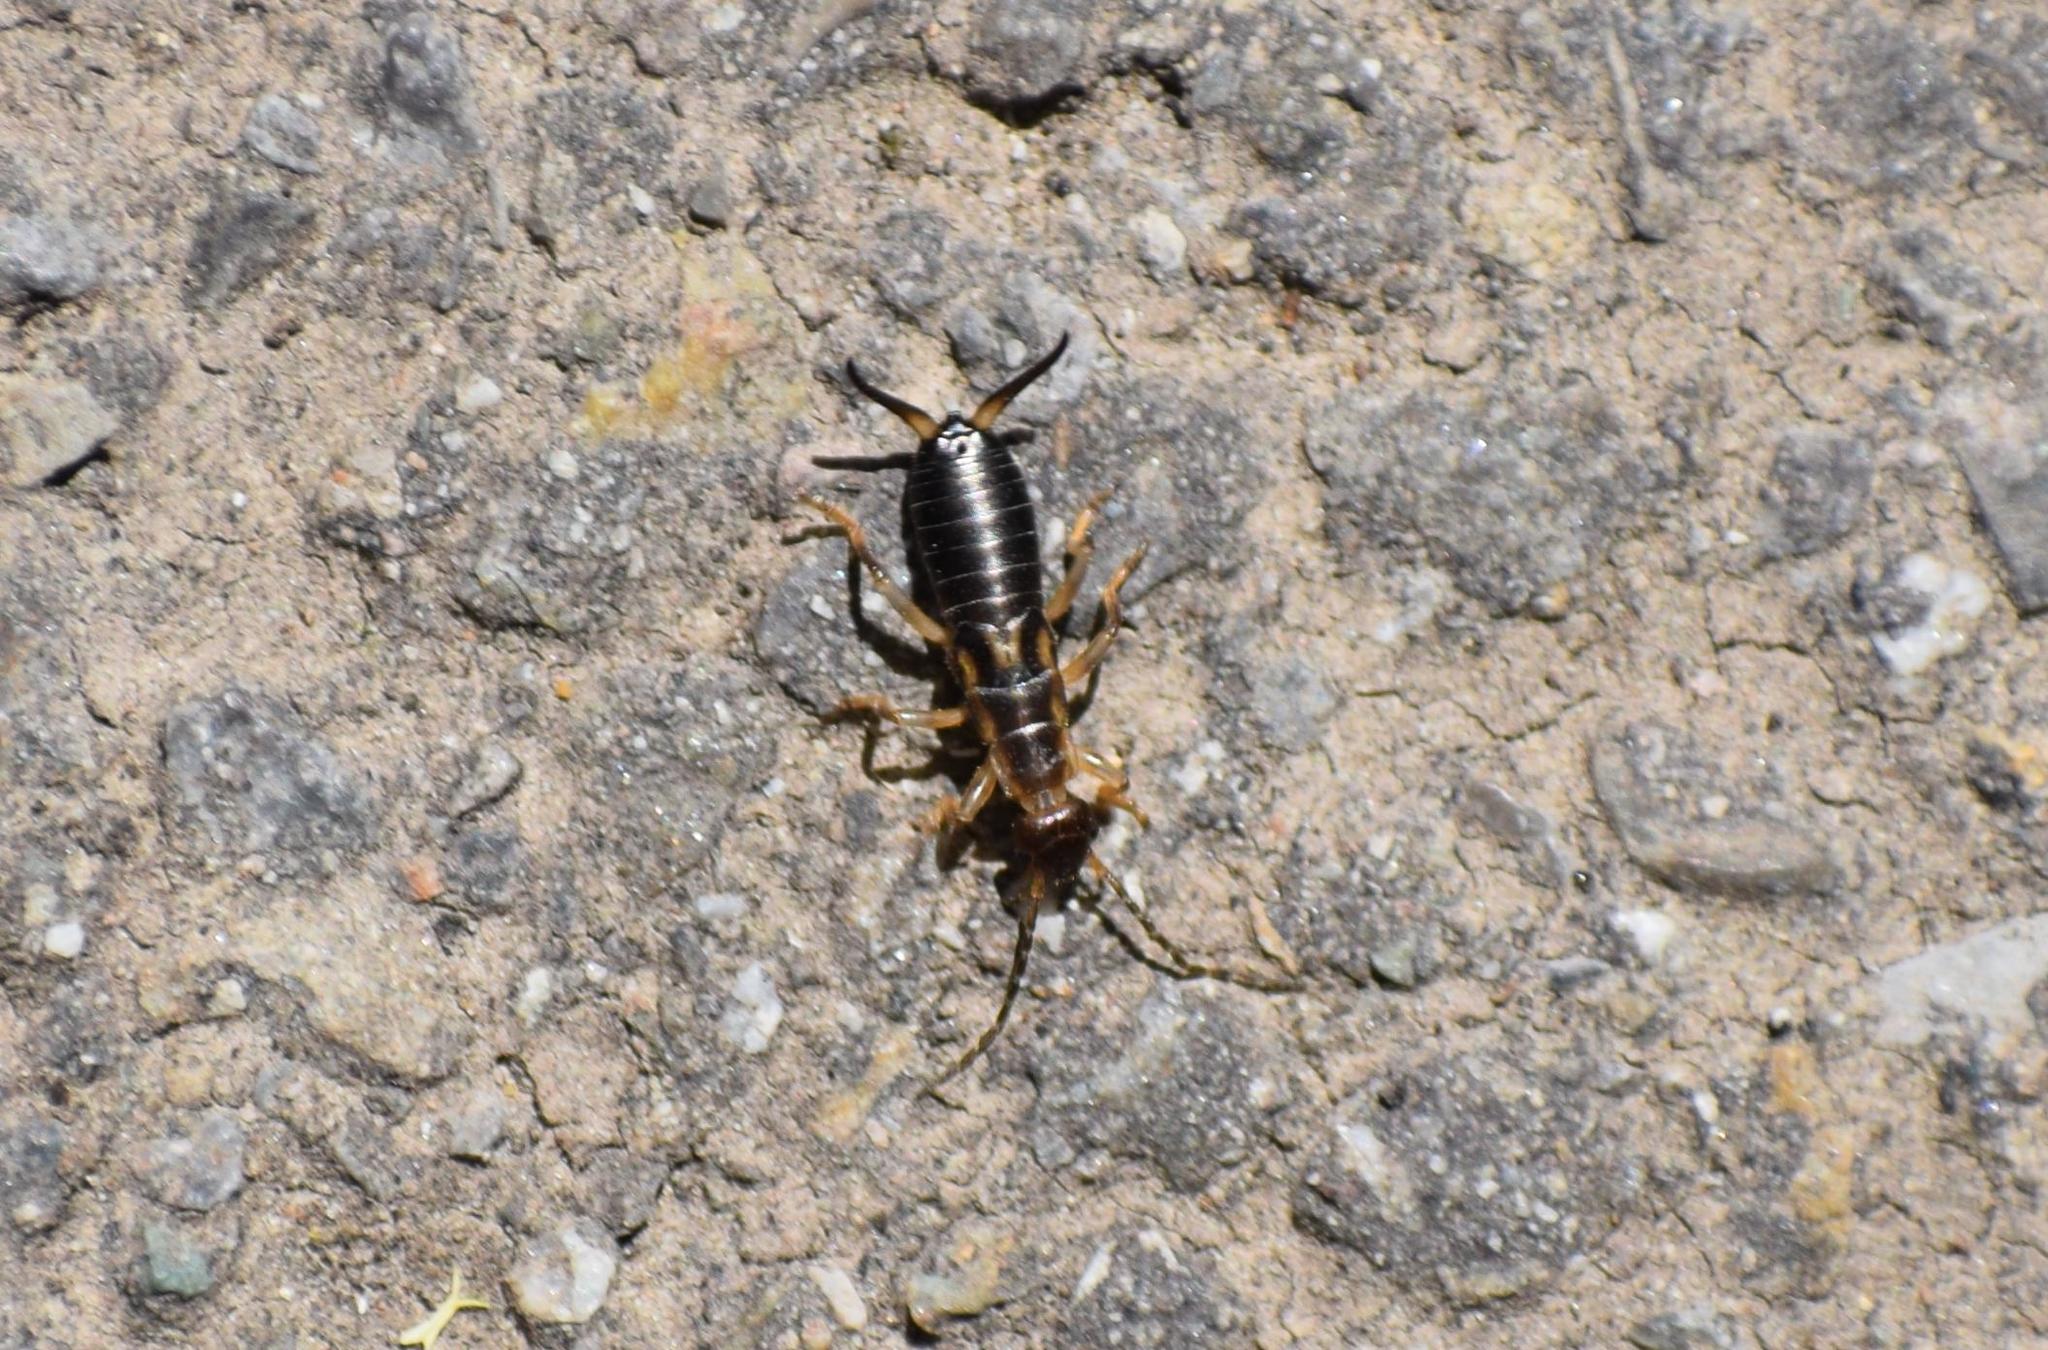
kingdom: Animalia
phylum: Arthropoda
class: Insecta
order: Dermaptera
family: Forficulidae
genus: Forficula
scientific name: Forficula
